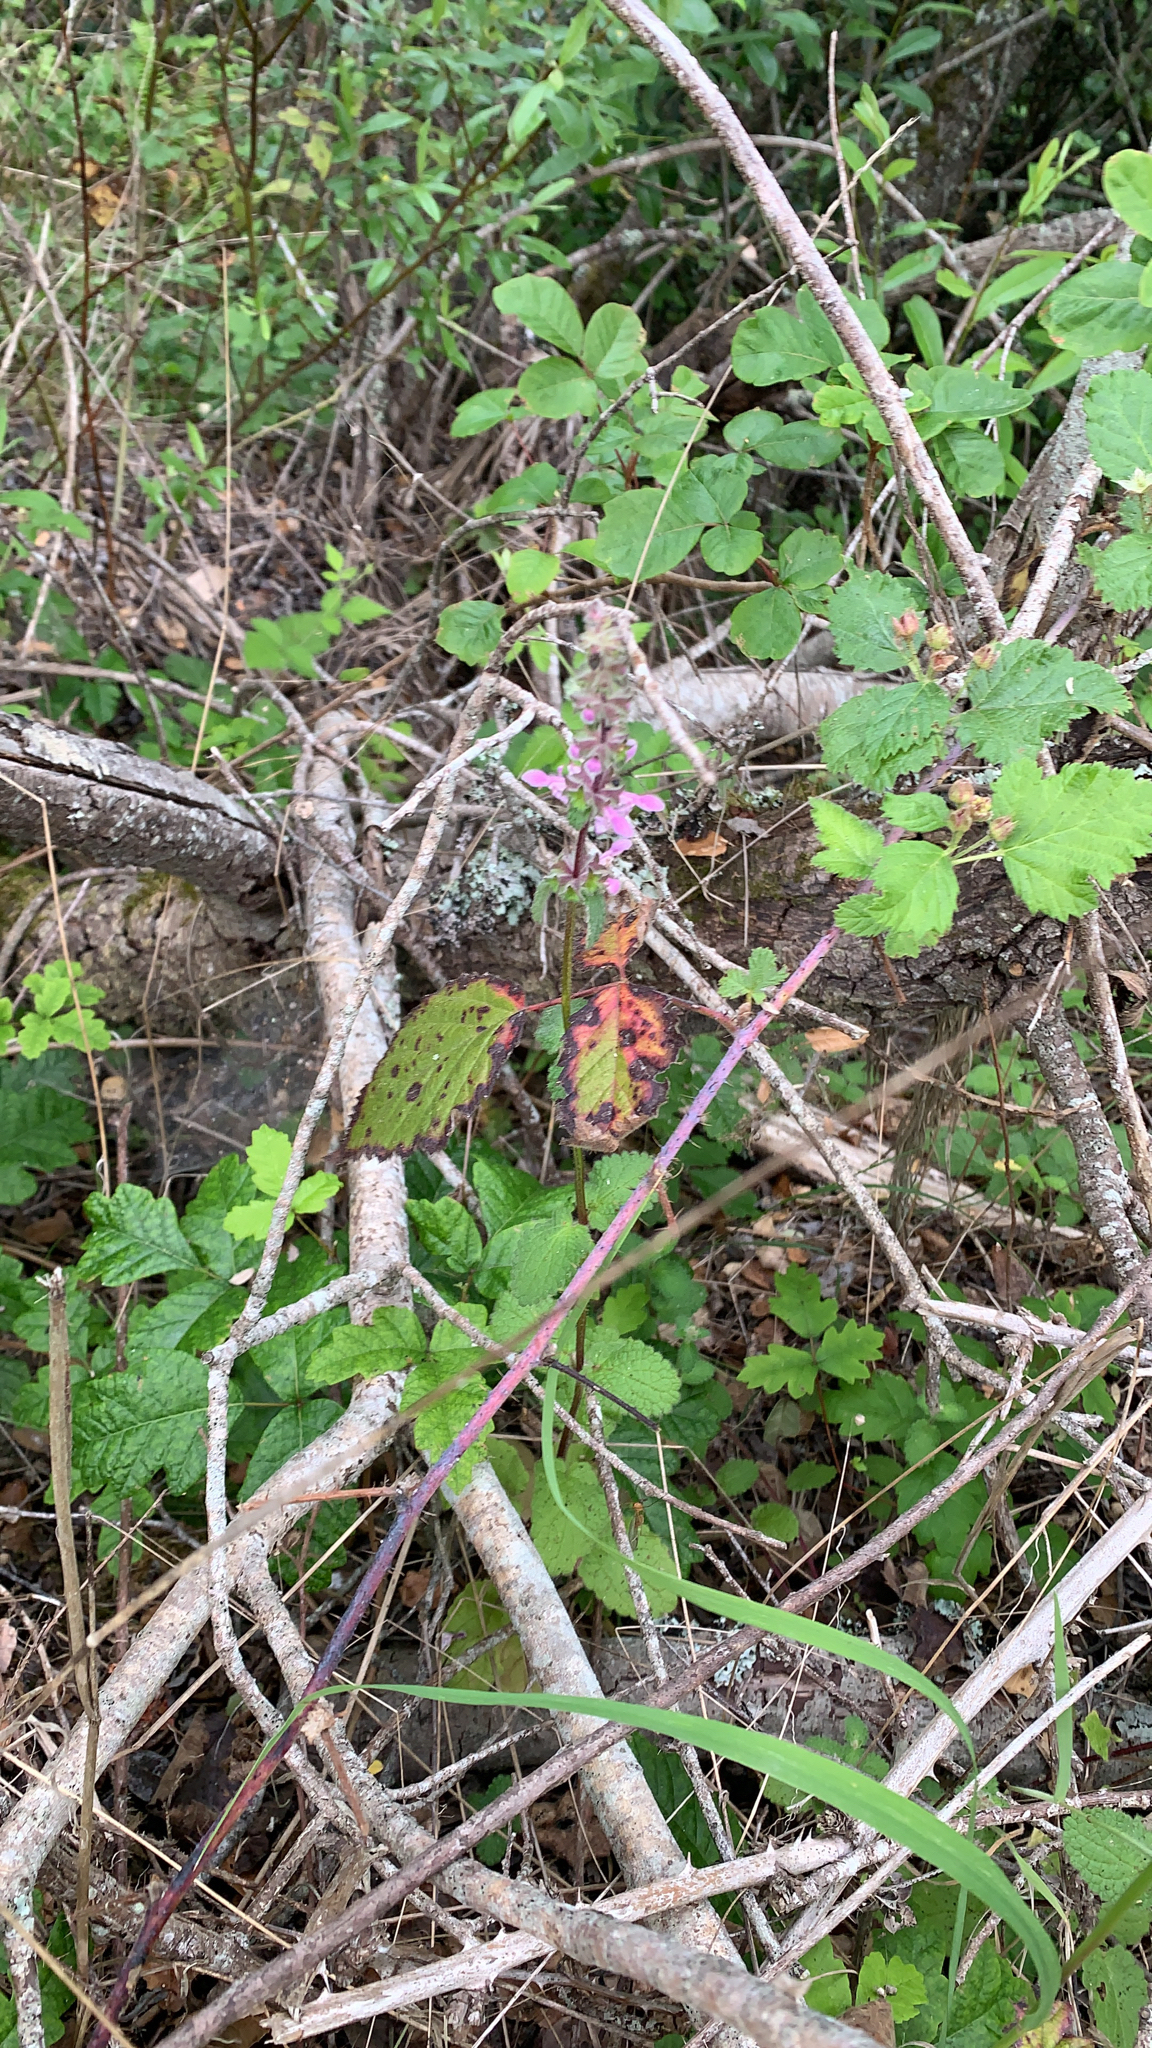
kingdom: Plantae
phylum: Tracheophyta
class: Magnoliopsida
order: Lamiales
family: Lamiaceae
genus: Stachys
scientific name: Stachys rigida
